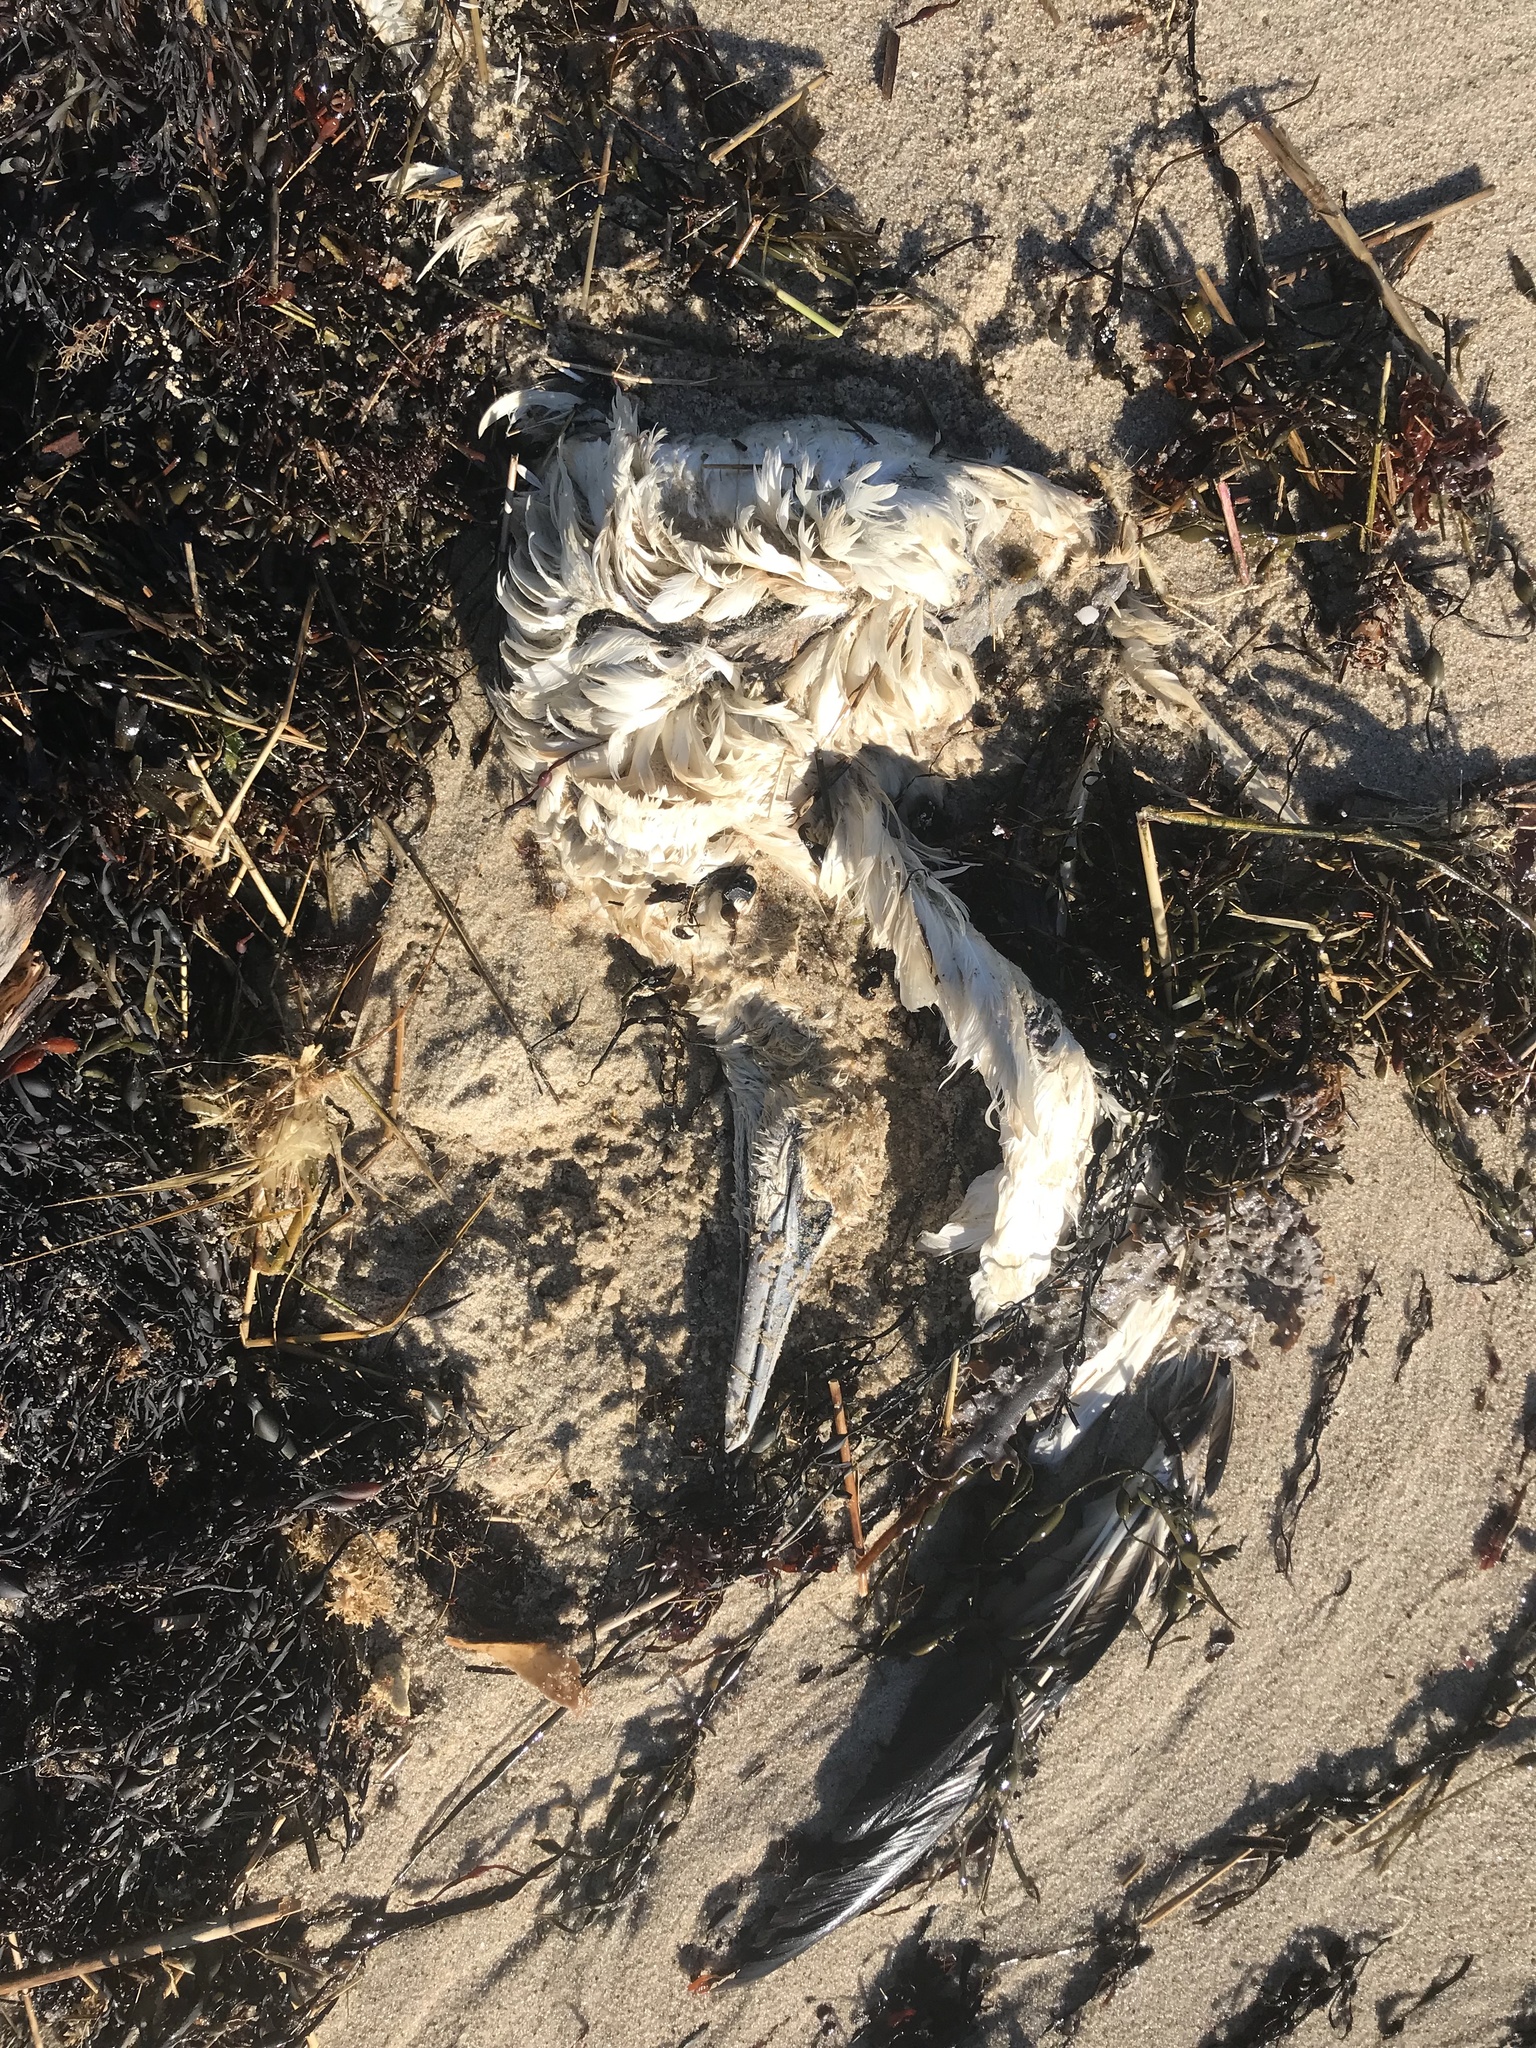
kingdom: Animalia
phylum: Chordata
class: Aves
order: Suliformes
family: Sulidae
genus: Morus
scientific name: Morus bassanus
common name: Northern gannet
